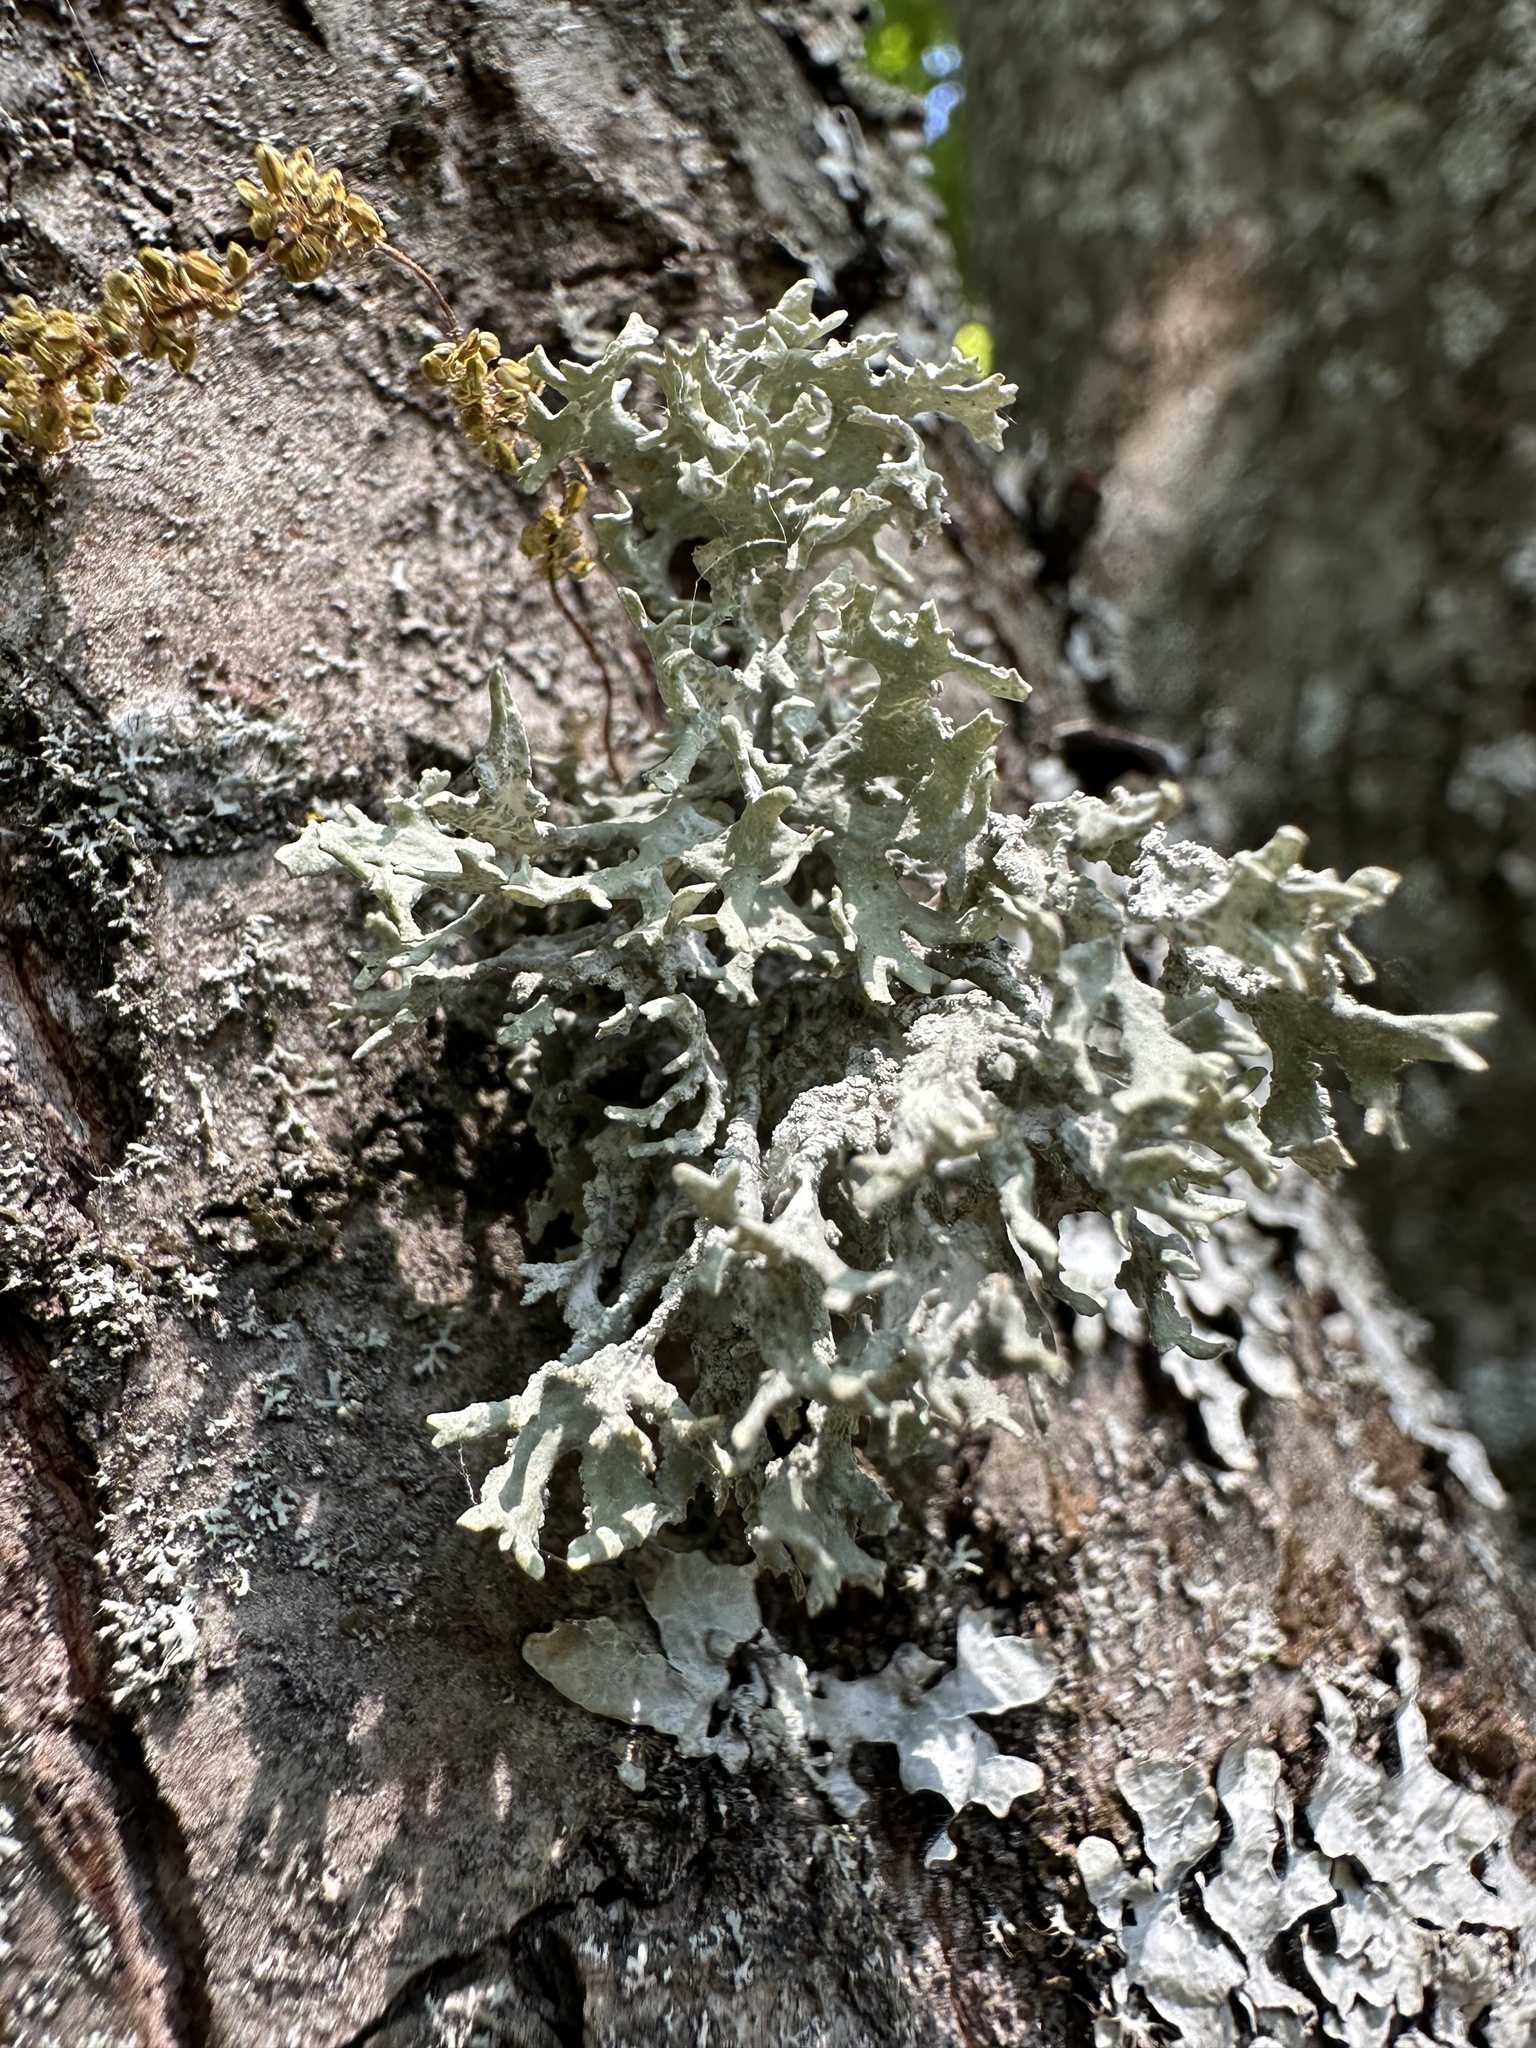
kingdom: Fungi
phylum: Ascomycota
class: Lecanoromycetes
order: Lecanorales
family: Parmeliaceae
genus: Evernia
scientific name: Evernia prunastri
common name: Oak moss
